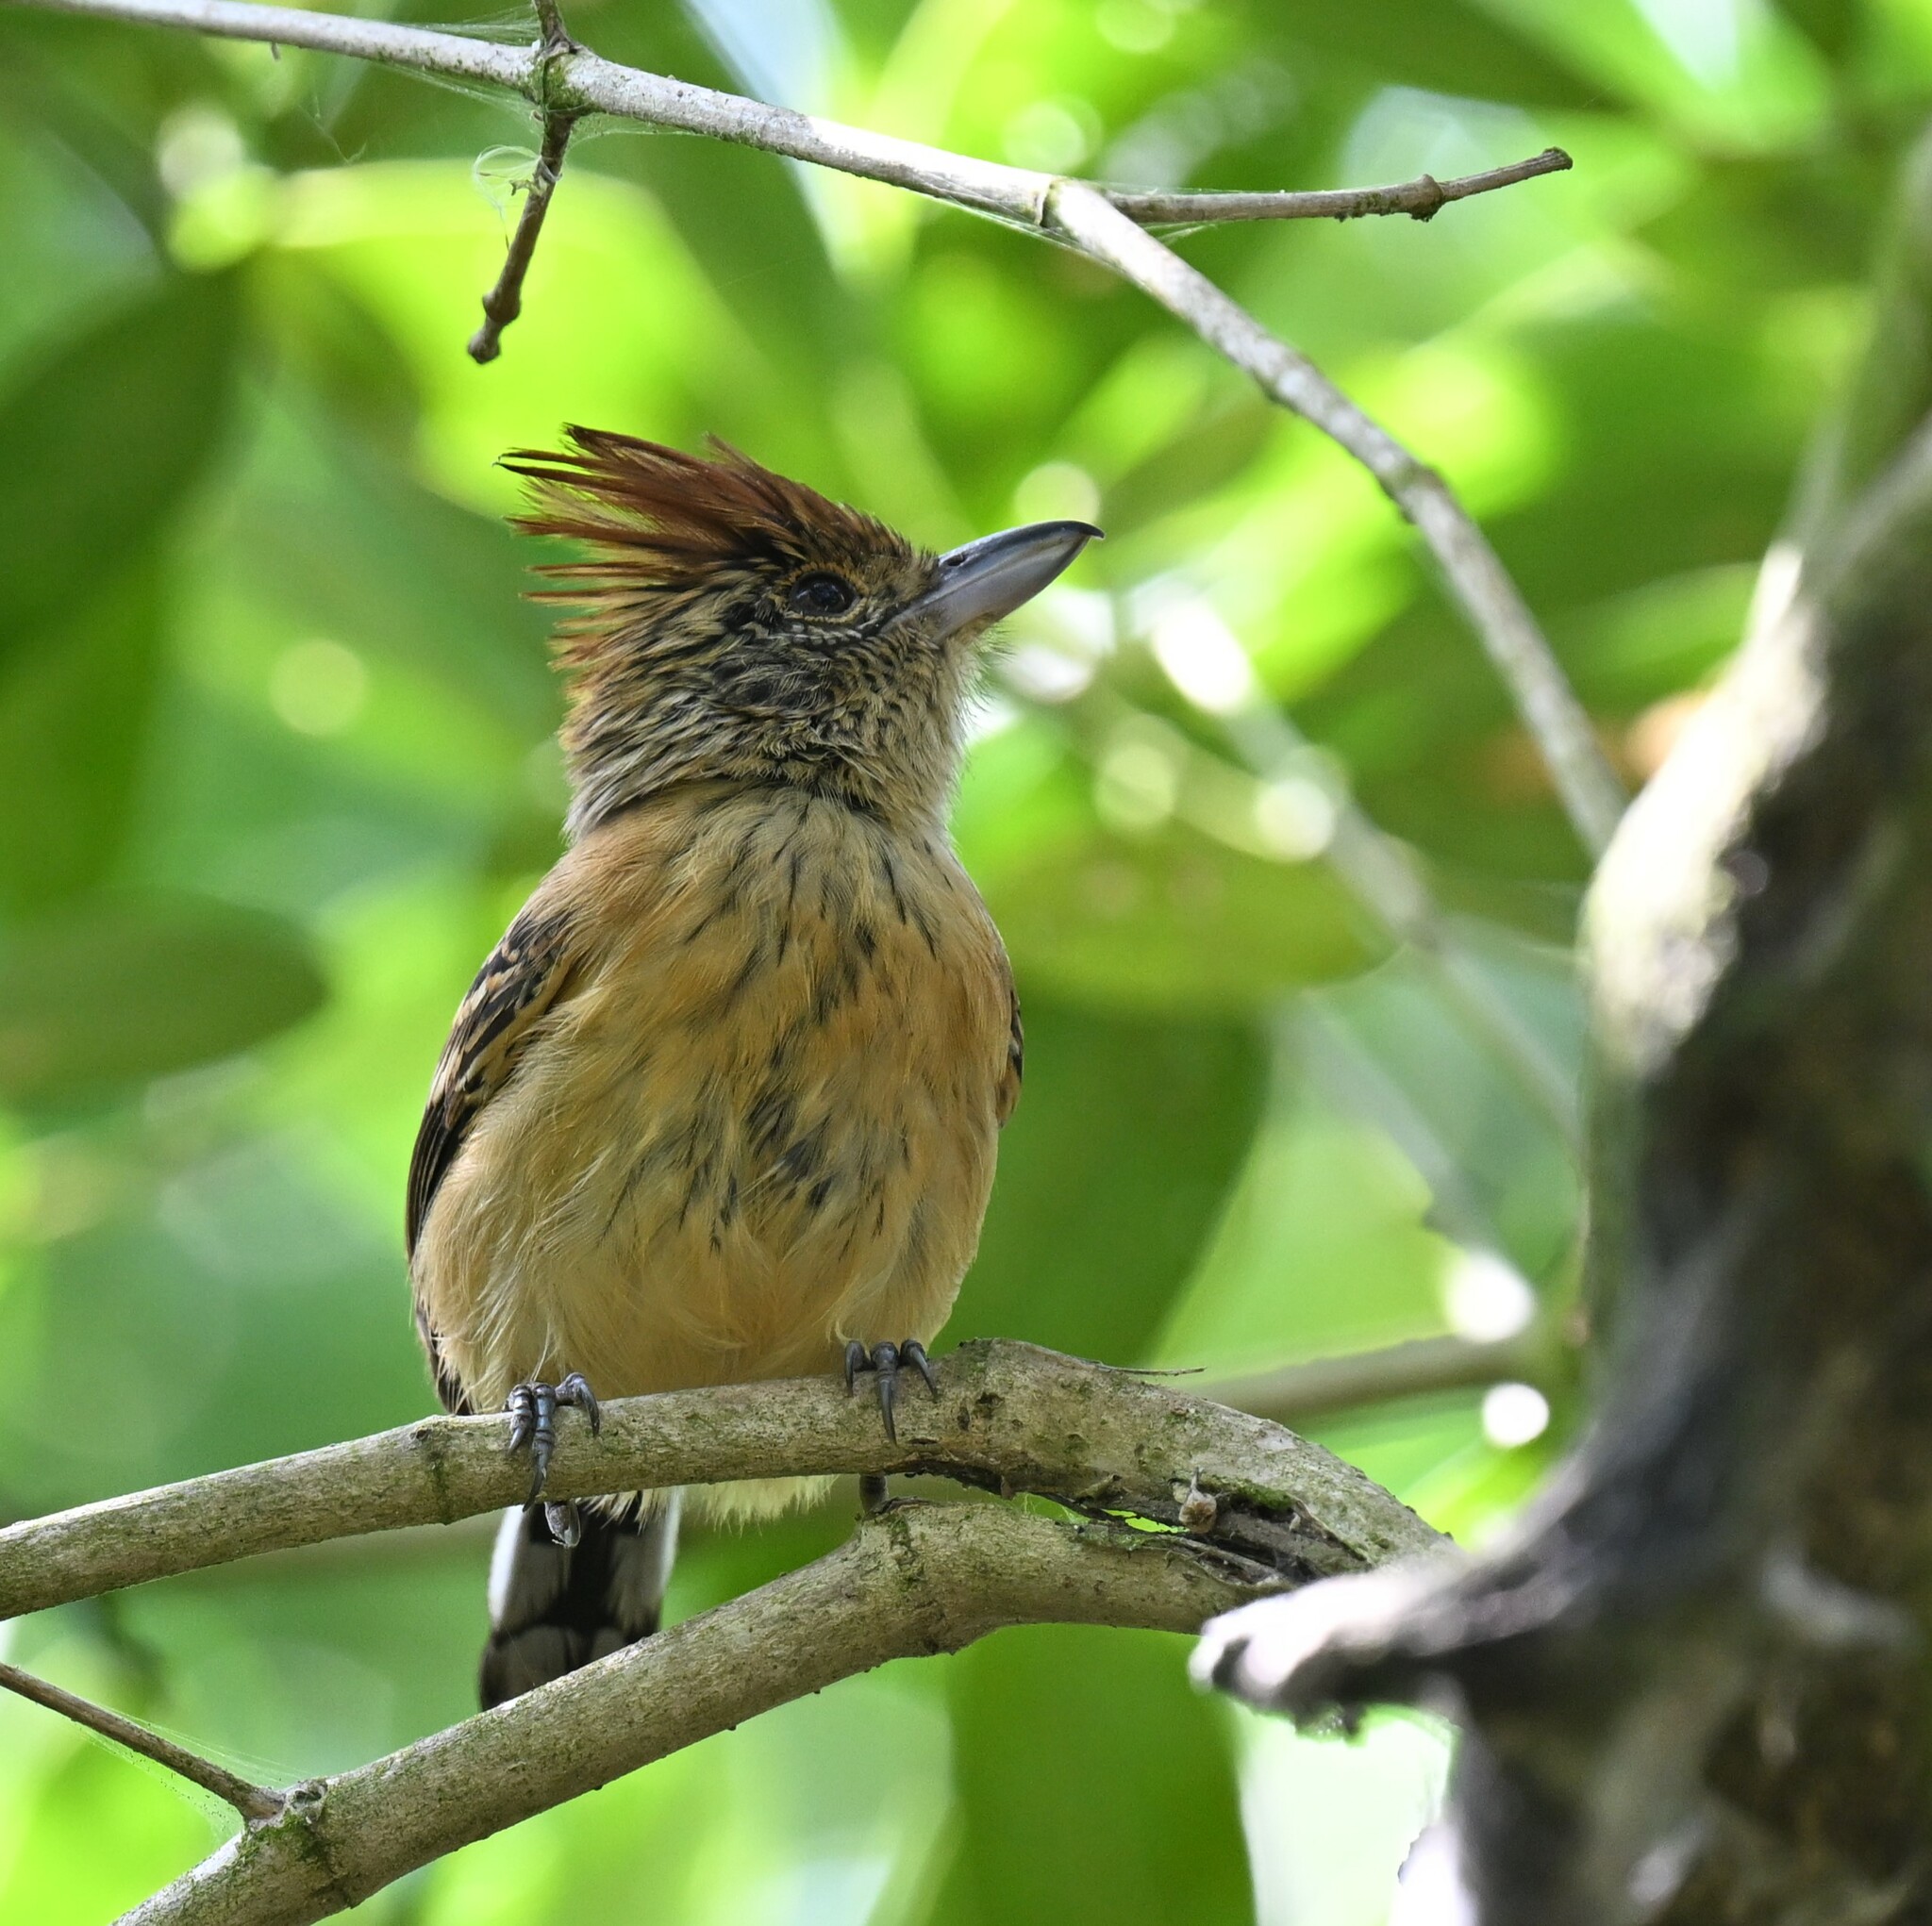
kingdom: Animalia
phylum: Chordata
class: Aves
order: Passeriformes
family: Thamnophilidae
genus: Sakesphorus
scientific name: Sakesphorus canadensis
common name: Black-crested antshrike
